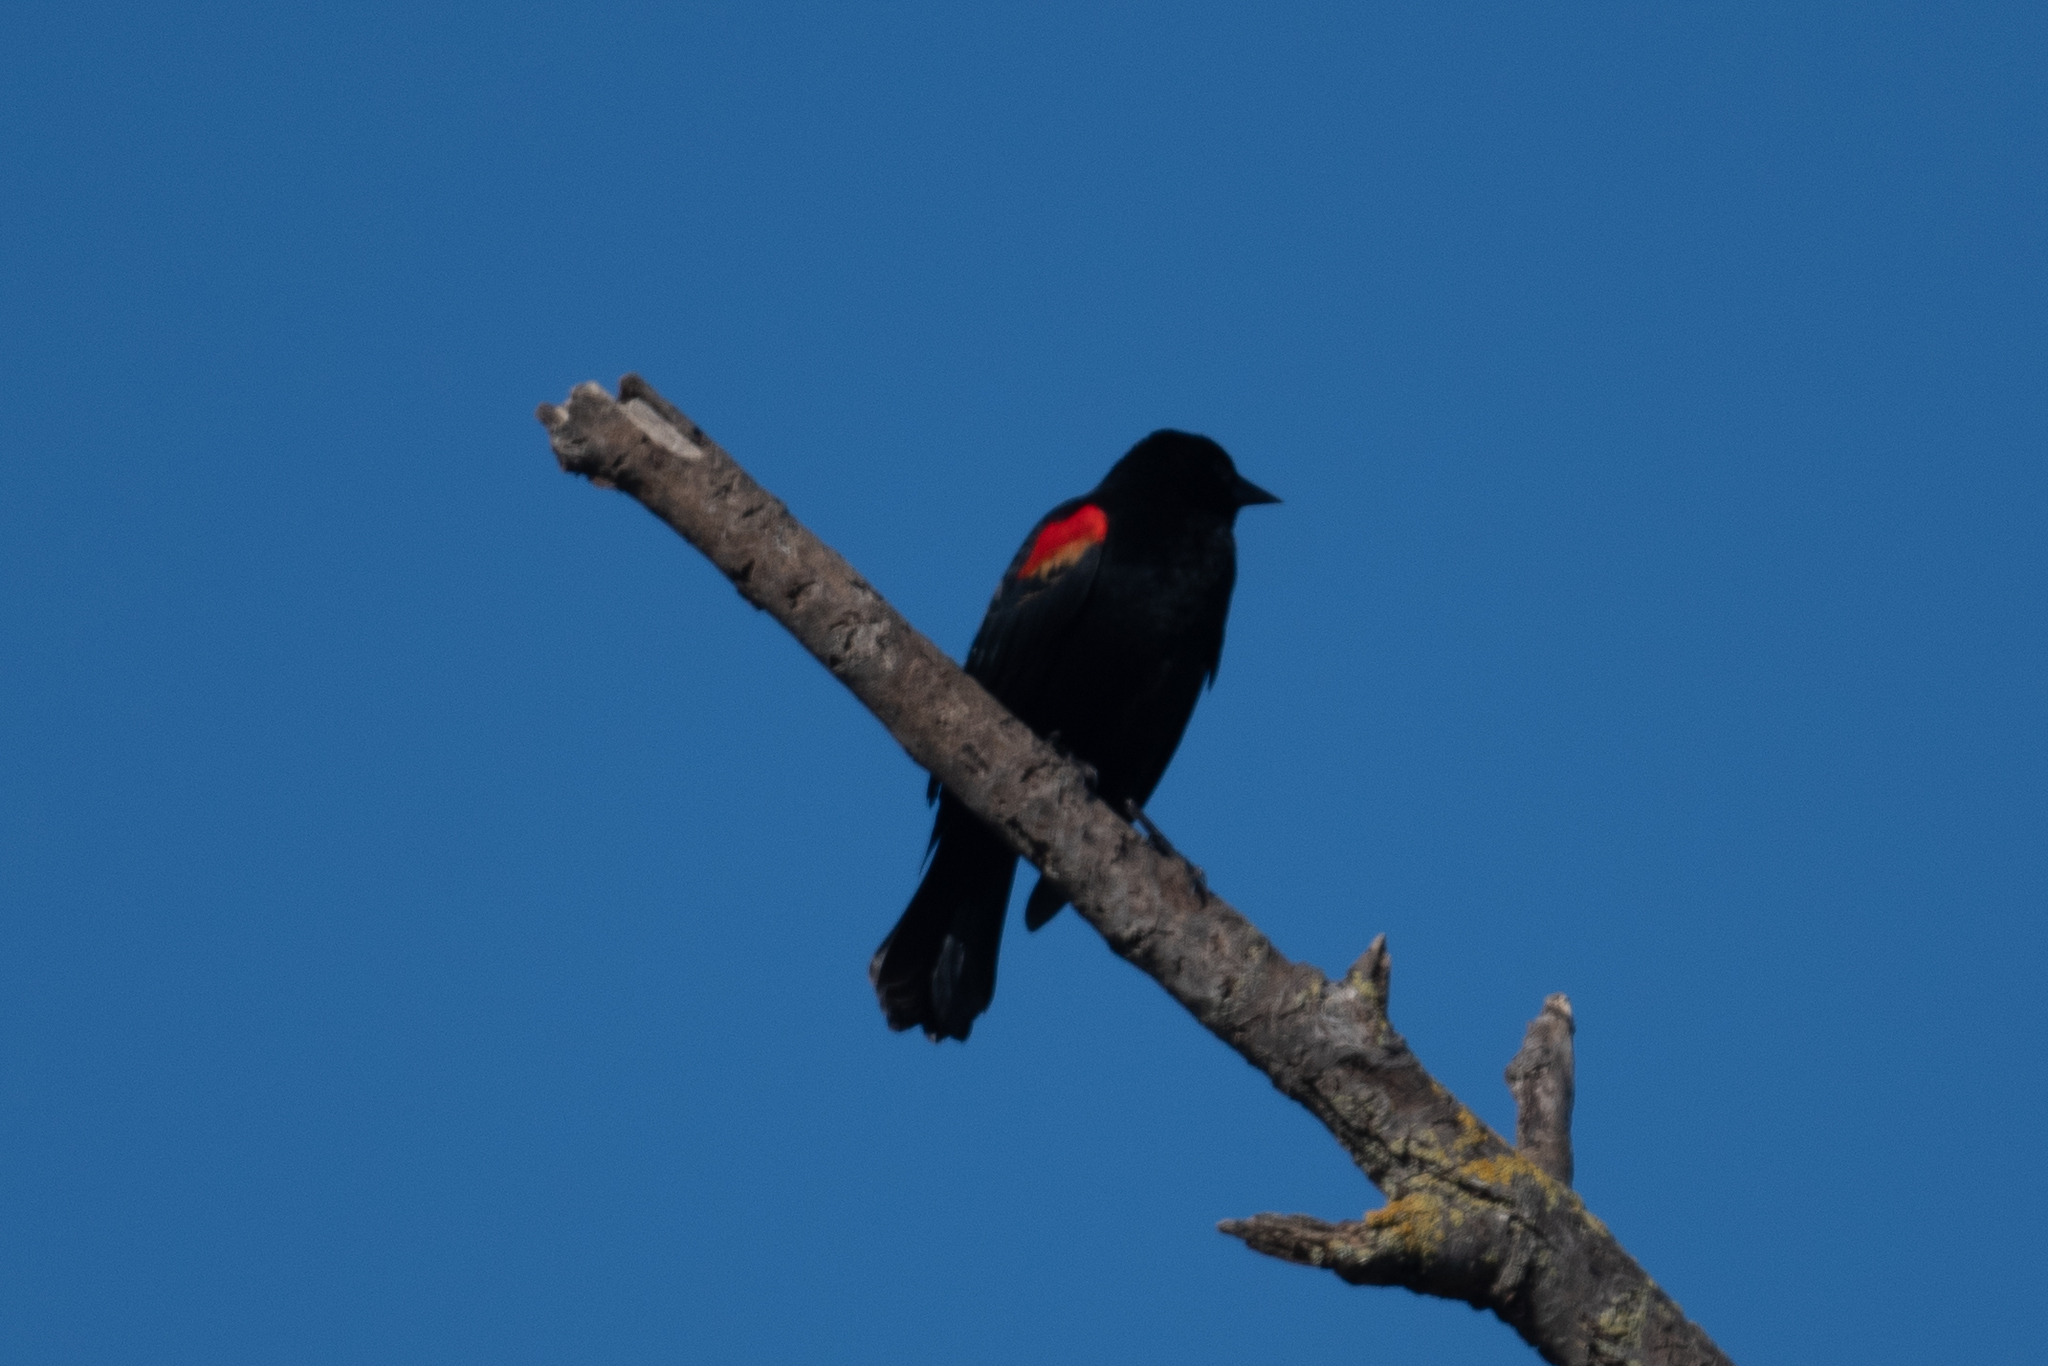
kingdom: Animalia
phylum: Chordata
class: Aves
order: Passeriformes
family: Icteridae
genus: Agelaius
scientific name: Agelaius phoeniceus
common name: Red-winged blackbird
